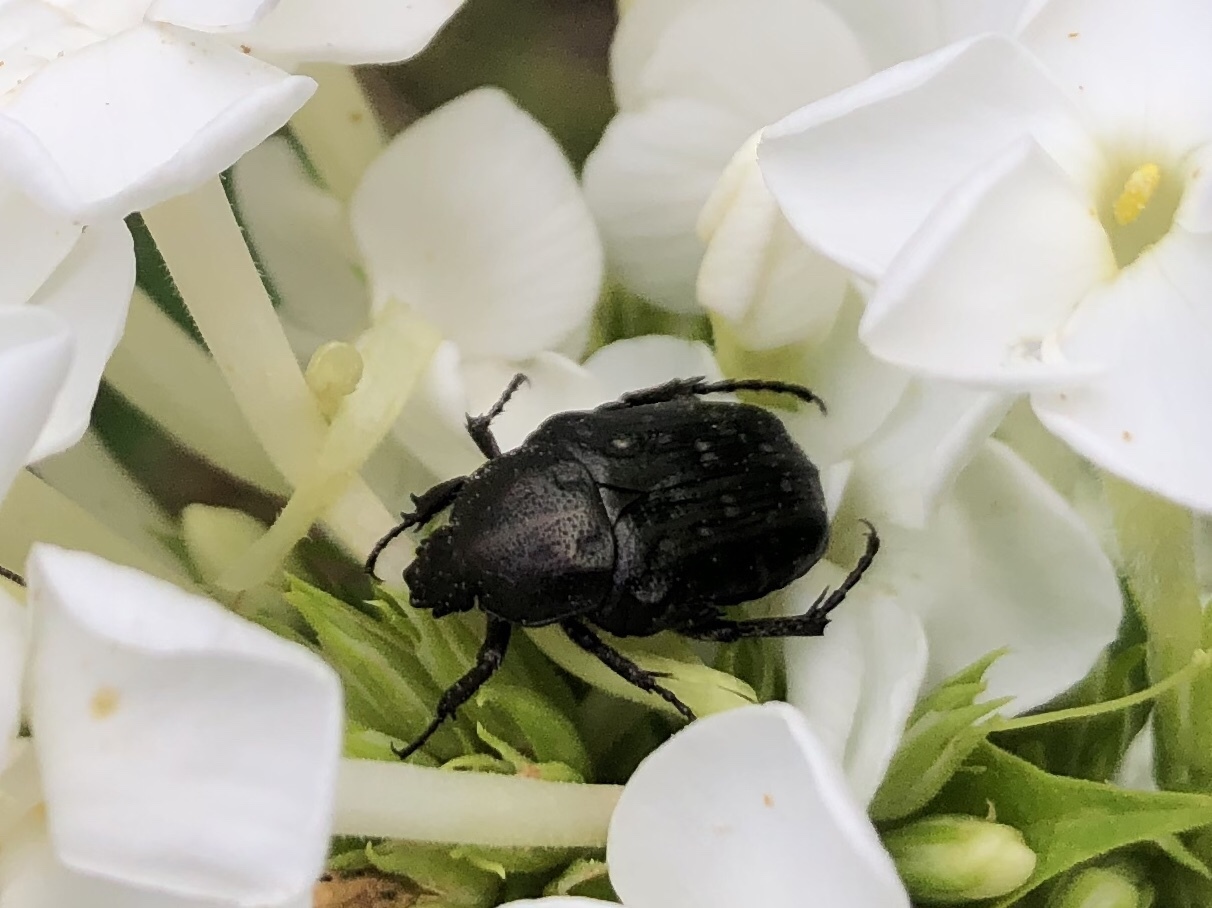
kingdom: Animalia
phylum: Arthropoda
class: Insecta
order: Coleoptera
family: Scarabaeidae
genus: Oxythyrea
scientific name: Oxythyrea funesta
